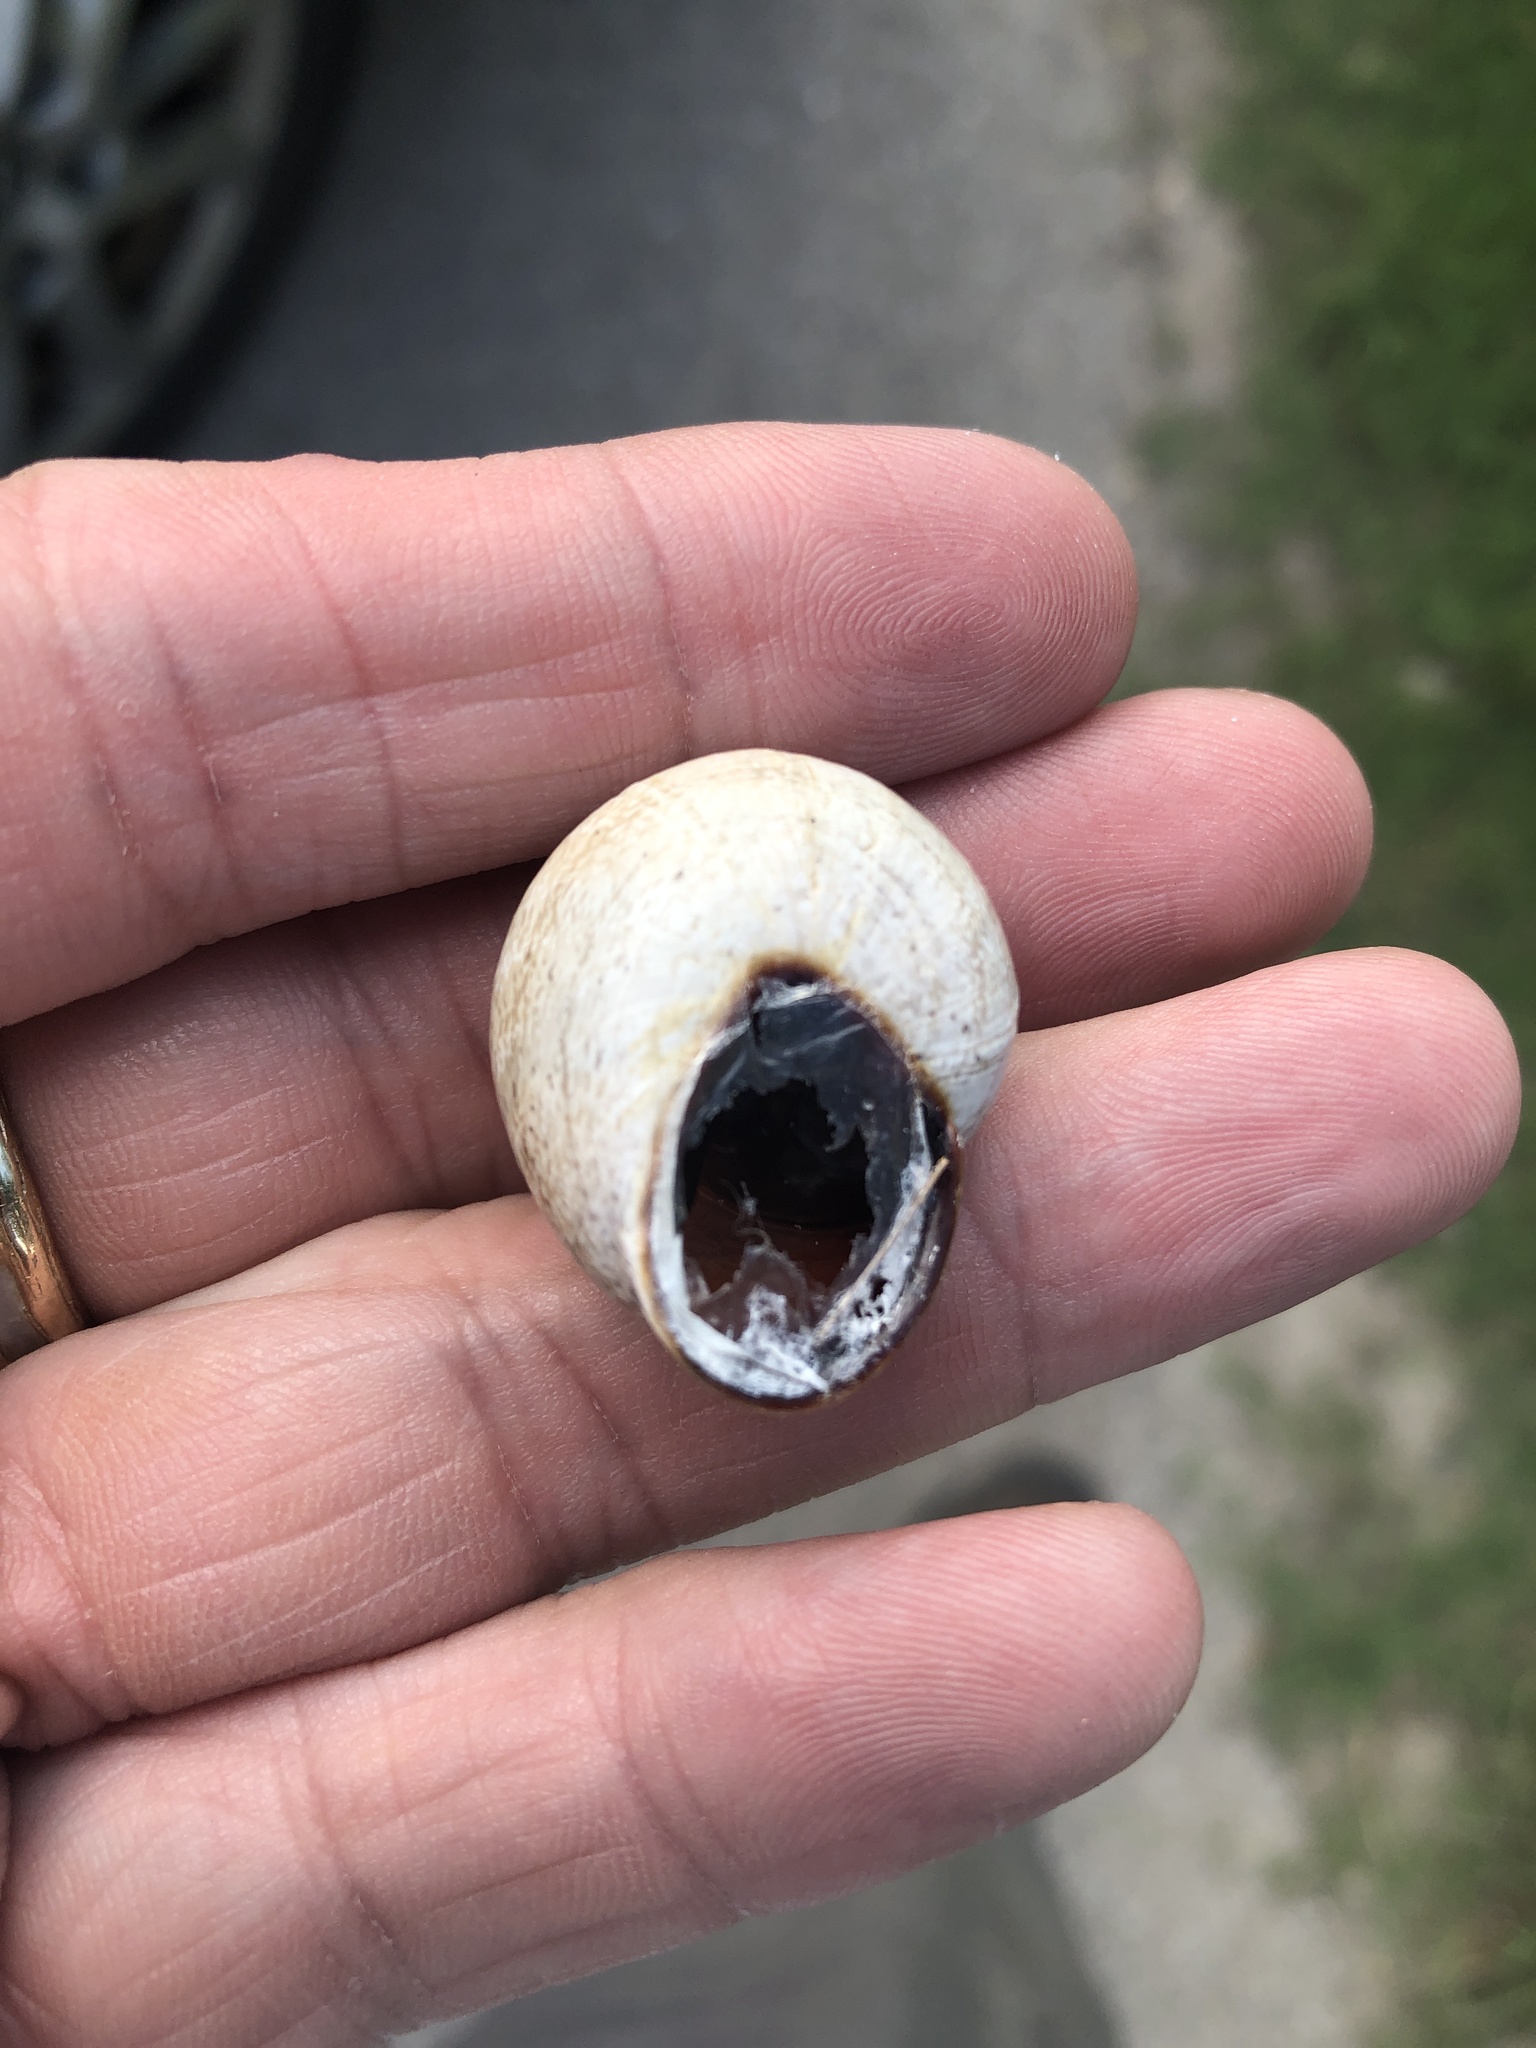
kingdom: Animalia
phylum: Mollusca
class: Gastropoda
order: Stylommatophora
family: Helicidae
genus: Otala
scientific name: Otala lactea
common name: Milk snail
